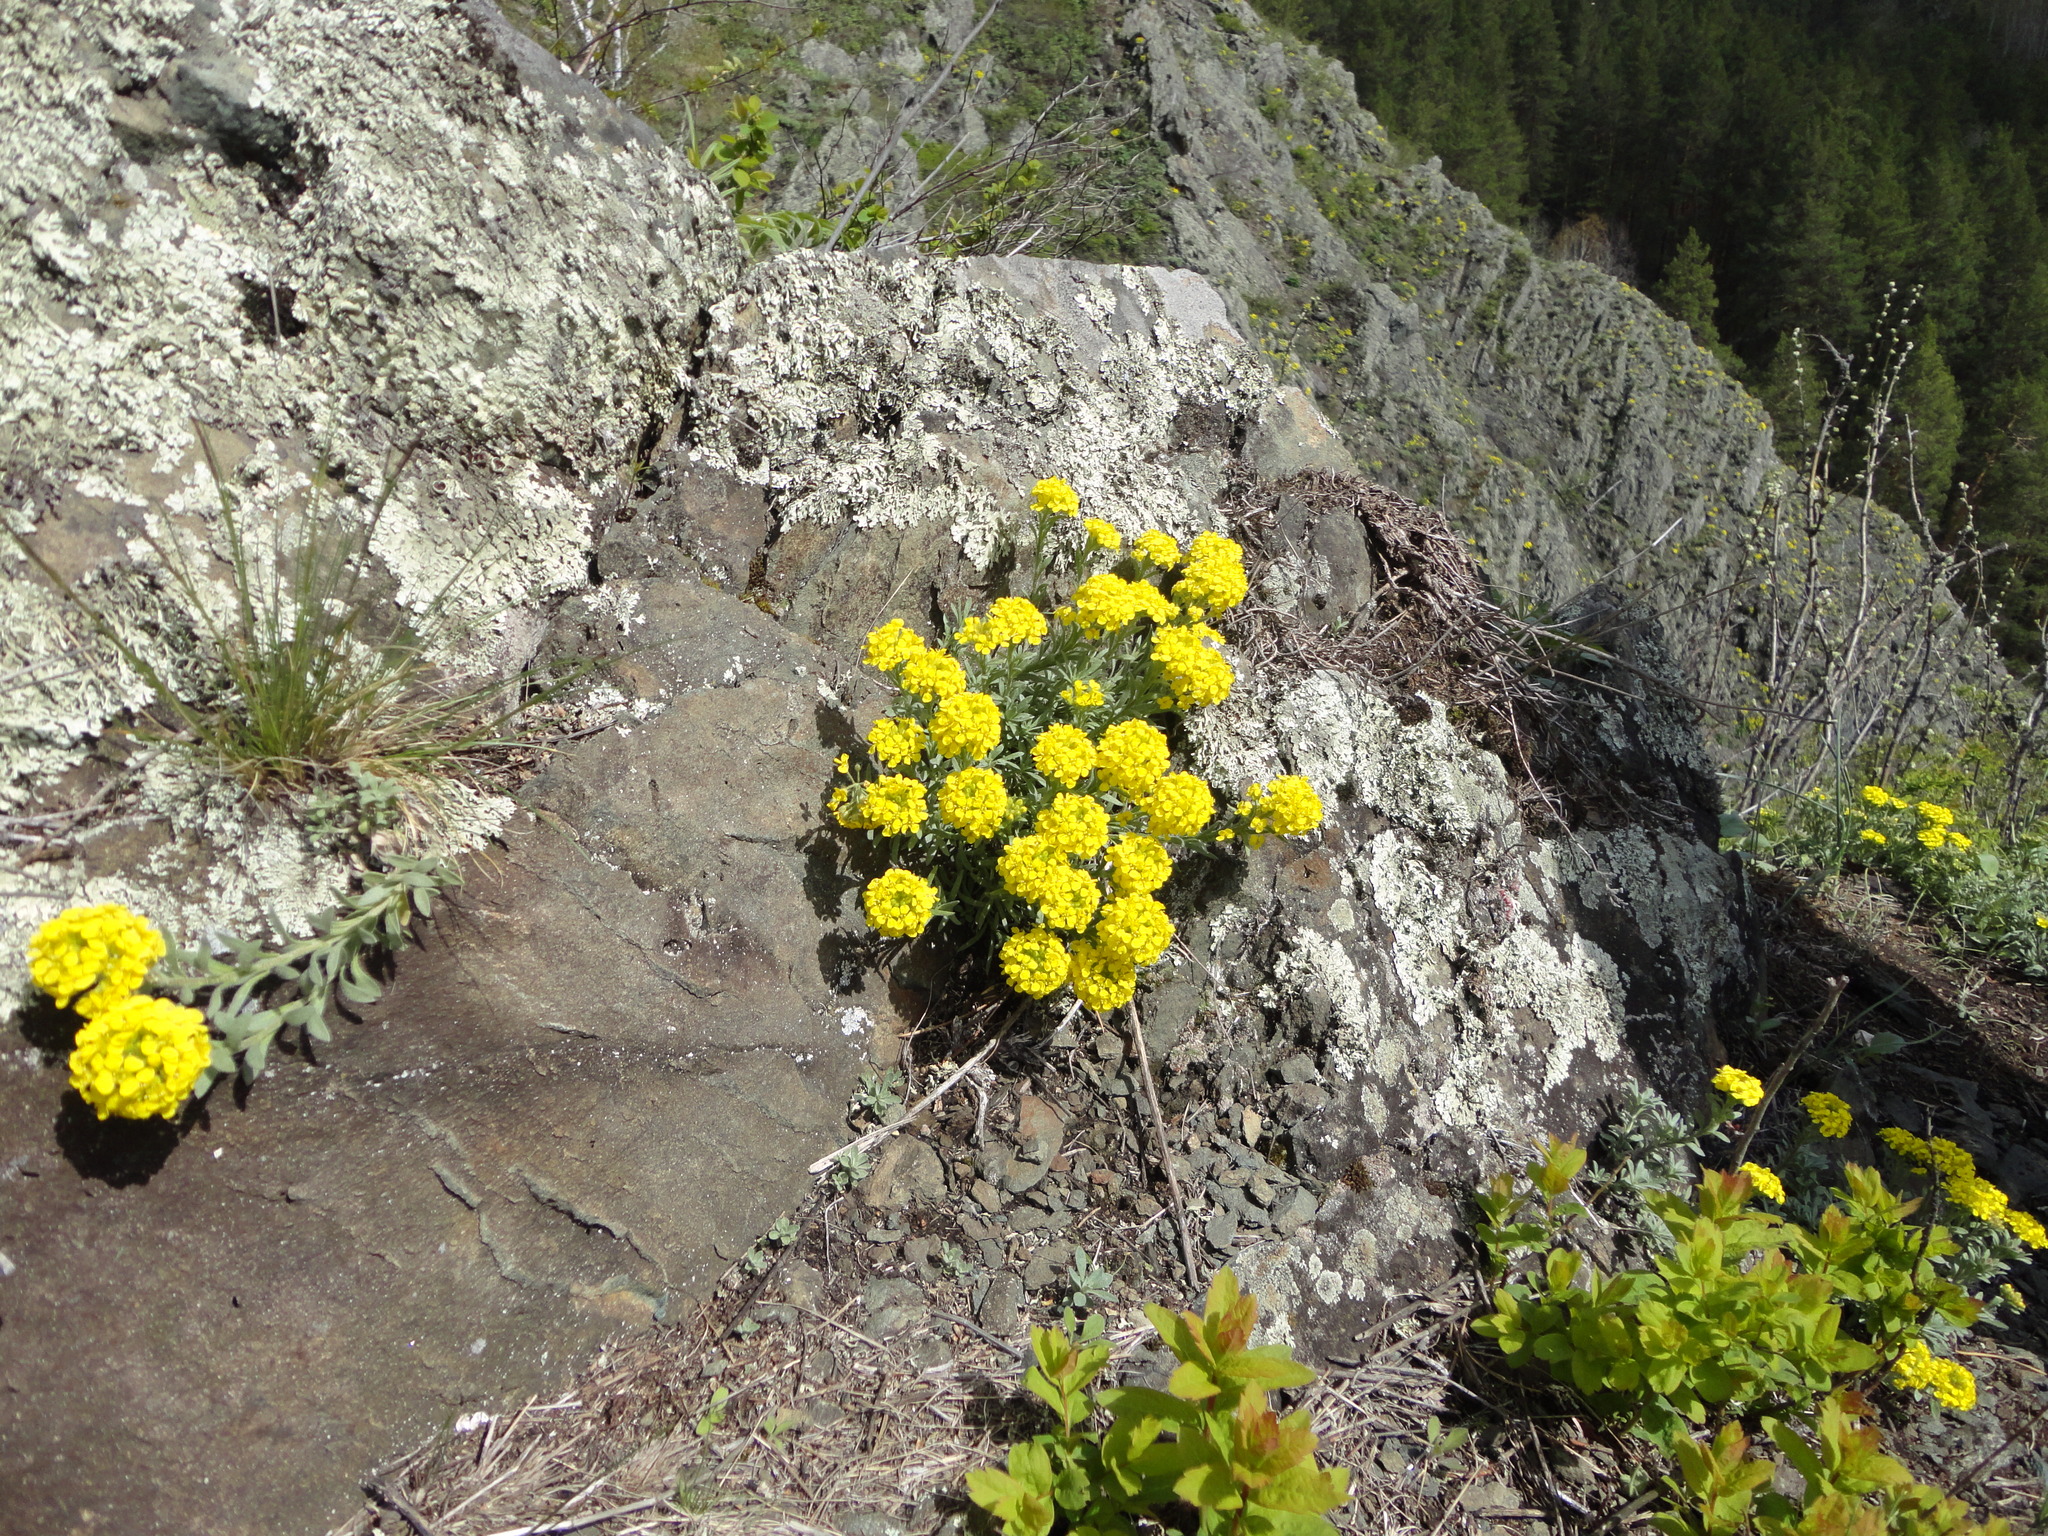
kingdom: Plantae
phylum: Tracheophyta
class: Magnoliopsida
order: Brassicales
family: Brassicaceae
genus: Alyssum
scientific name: Alyssum lenense
